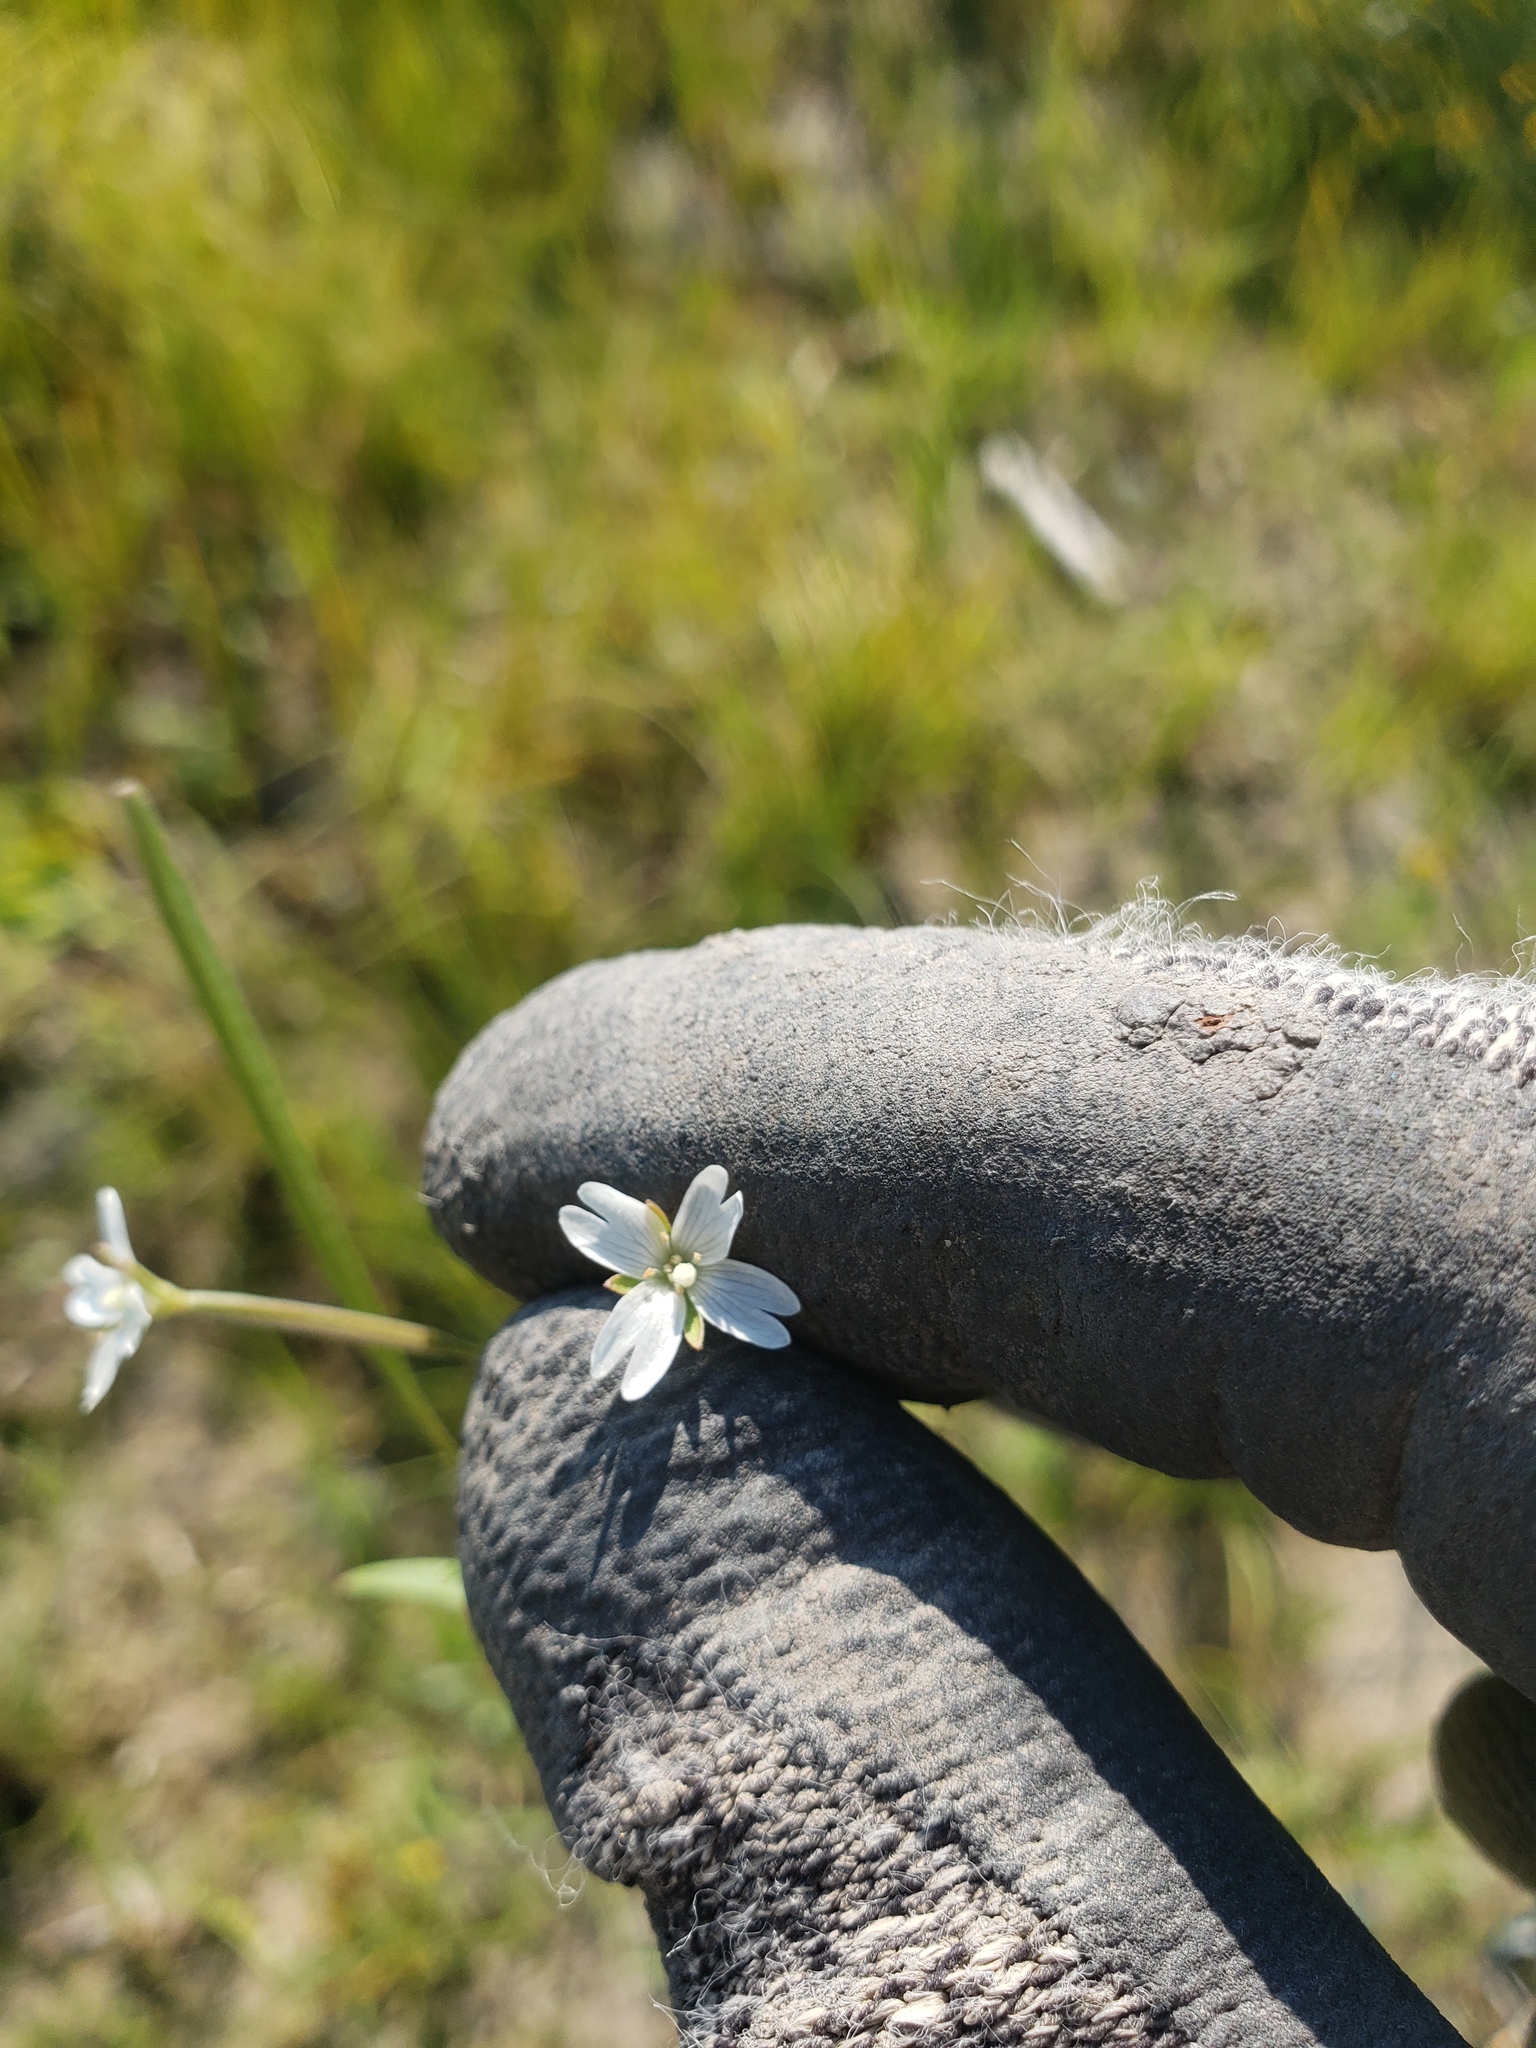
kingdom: Plantae
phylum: Tracheophyta
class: Magnoliopsida
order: Myrtales
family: Onagraceae
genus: Epilobium
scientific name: Epilobium leptophyllum
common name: Bog willowherb
